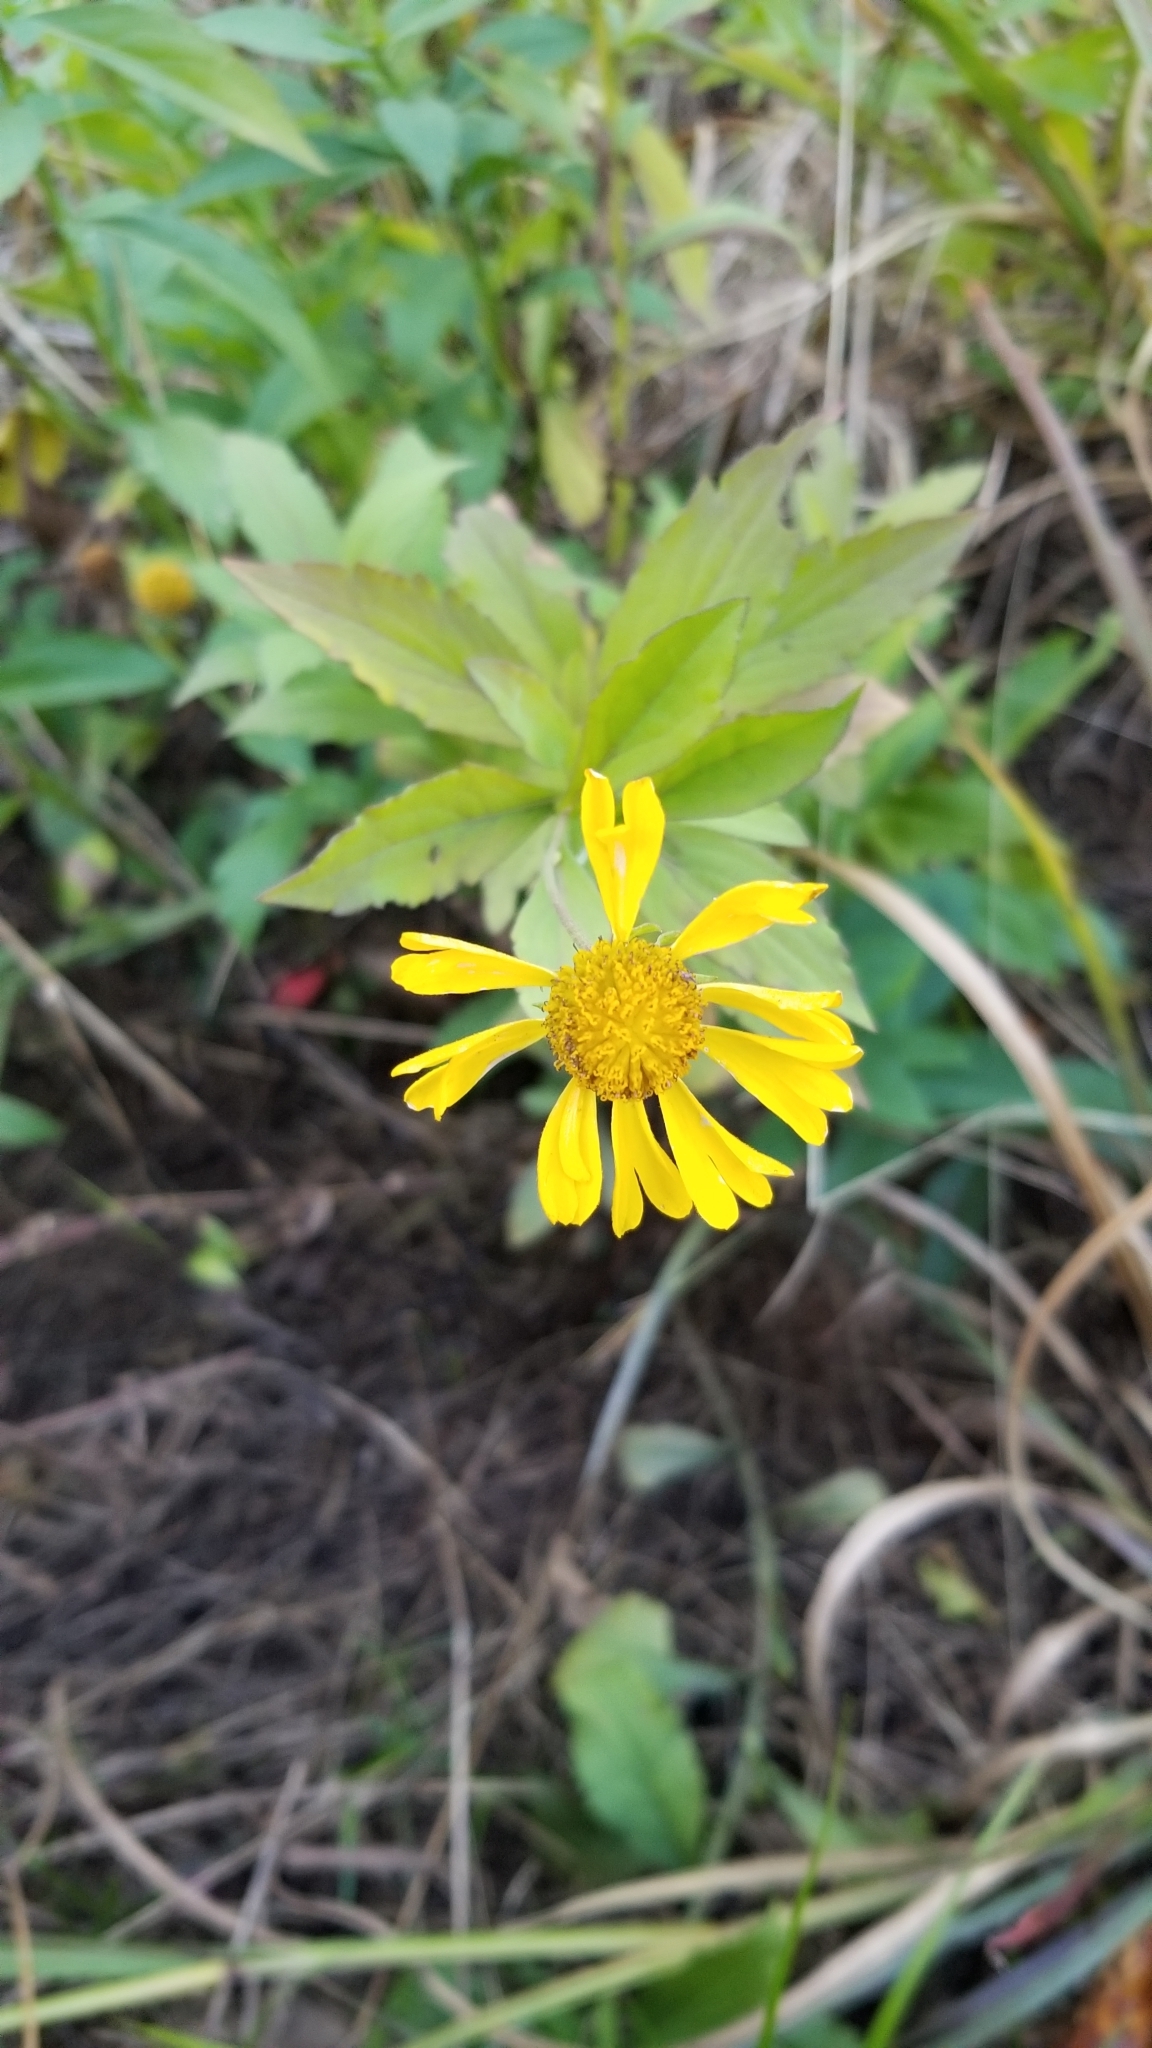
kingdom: Plantae
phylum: Tracheophyta
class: Magnoliopsida
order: Asterales
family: Asteraceae
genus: Helenium
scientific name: Helenium autumnale
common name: Sneezeweed
